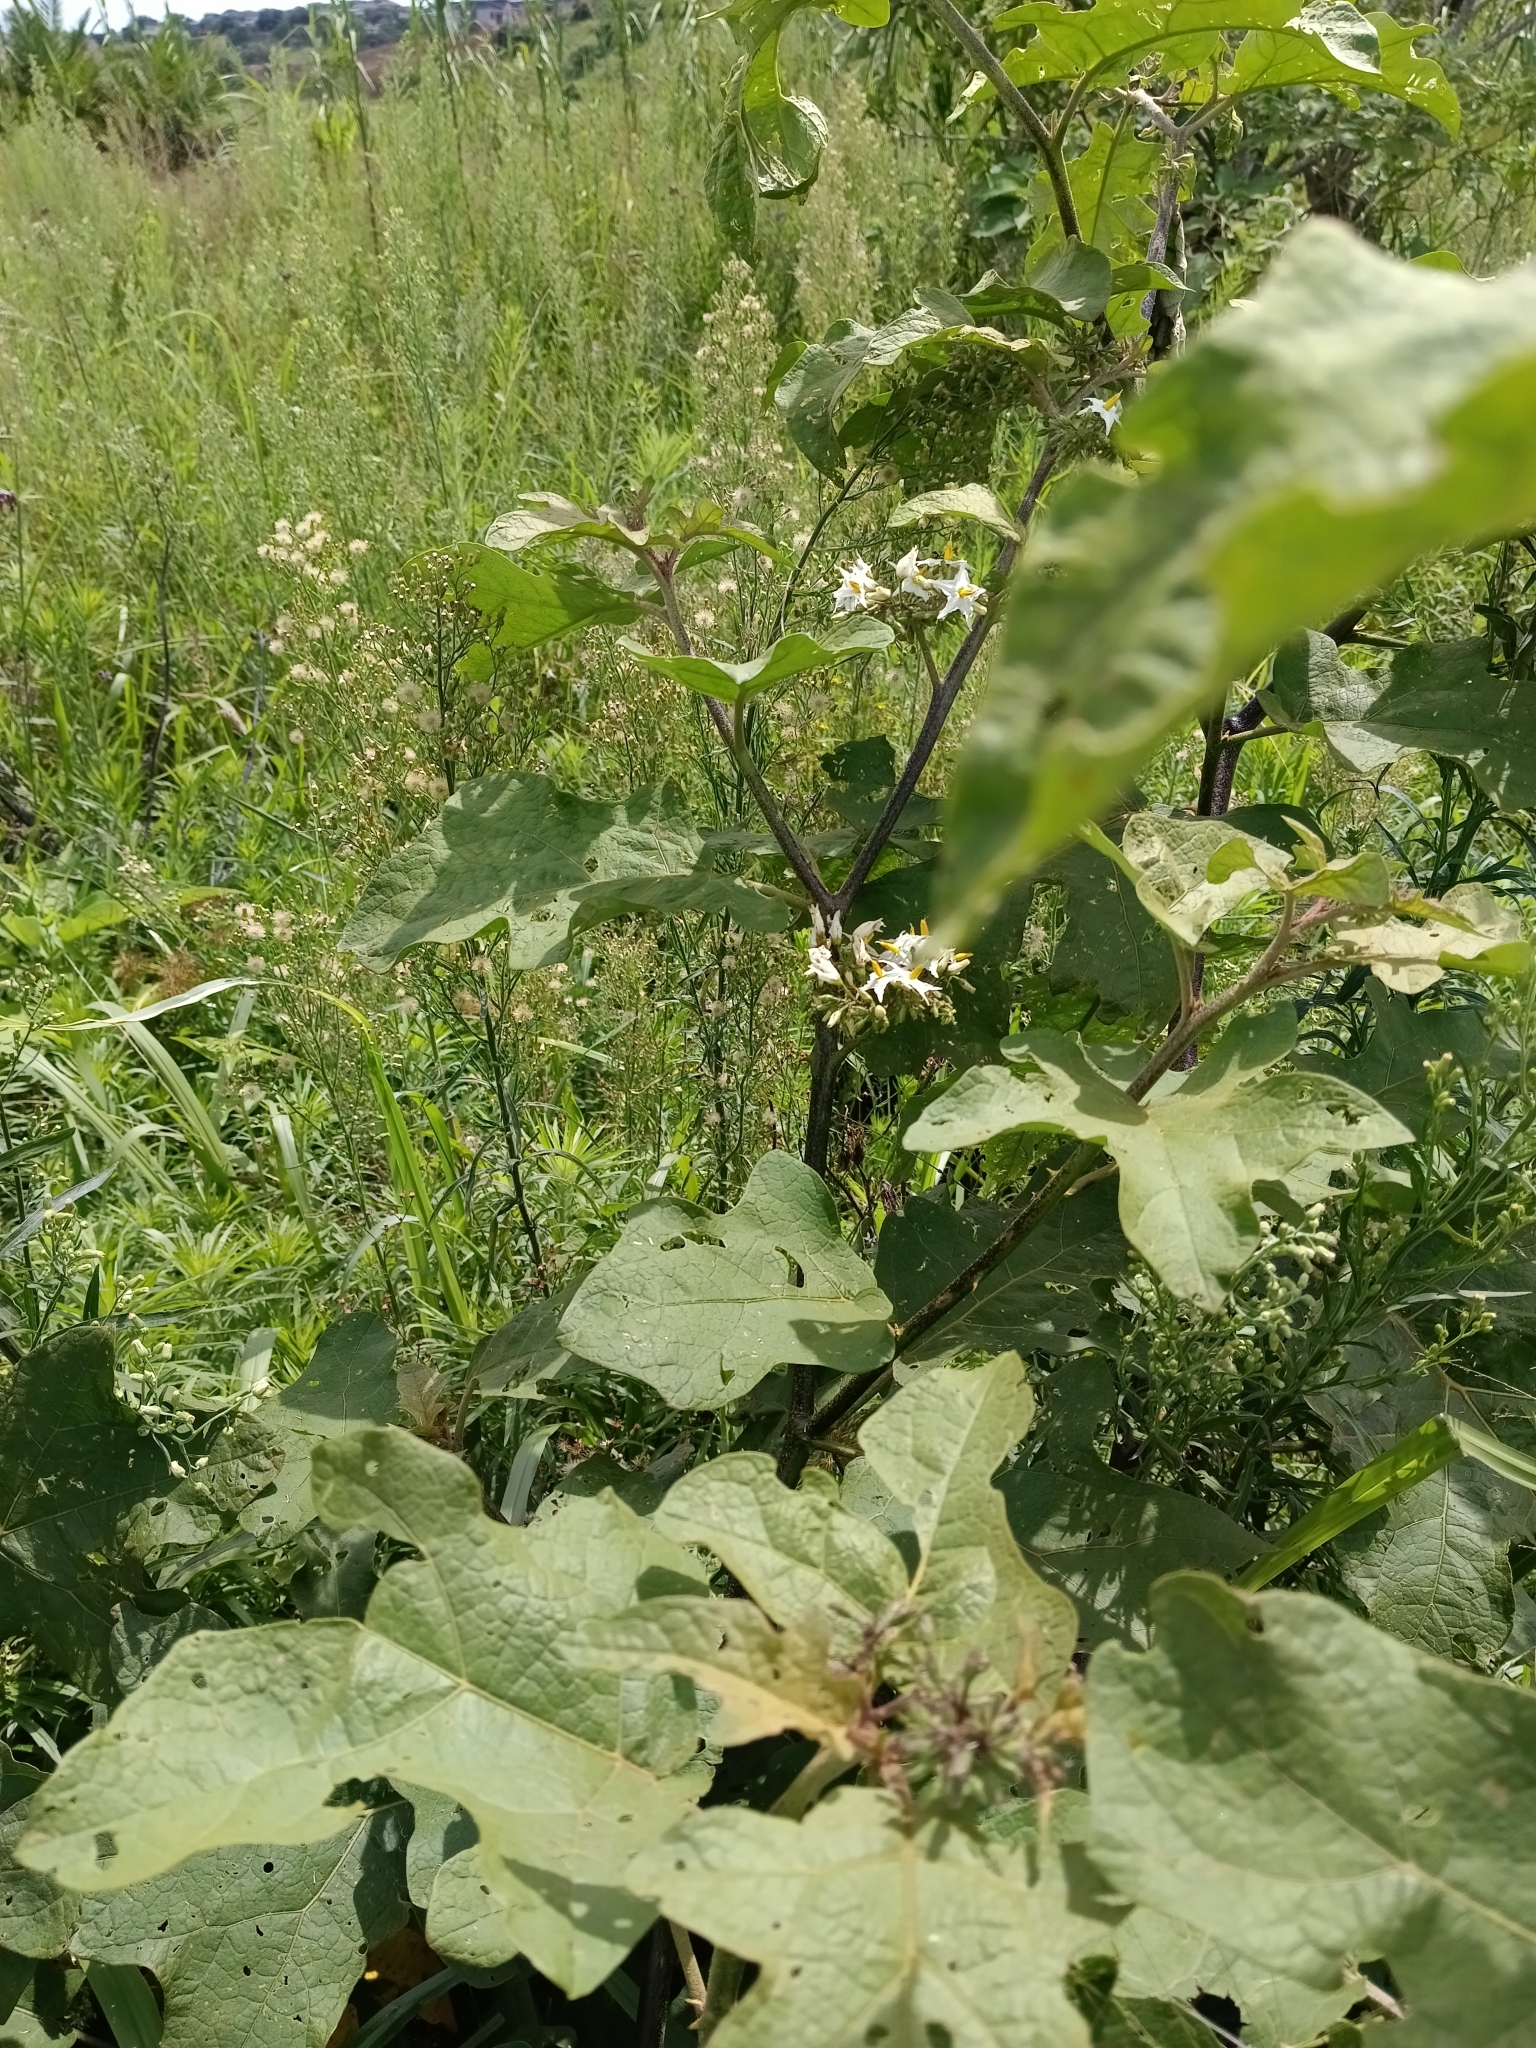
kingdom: Plantae
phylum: Tracheophyta
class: Magnoliopsida
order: Solanales
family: Solanaceae
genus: Solanum
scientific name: Solanum torvum
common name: Turkey berry
